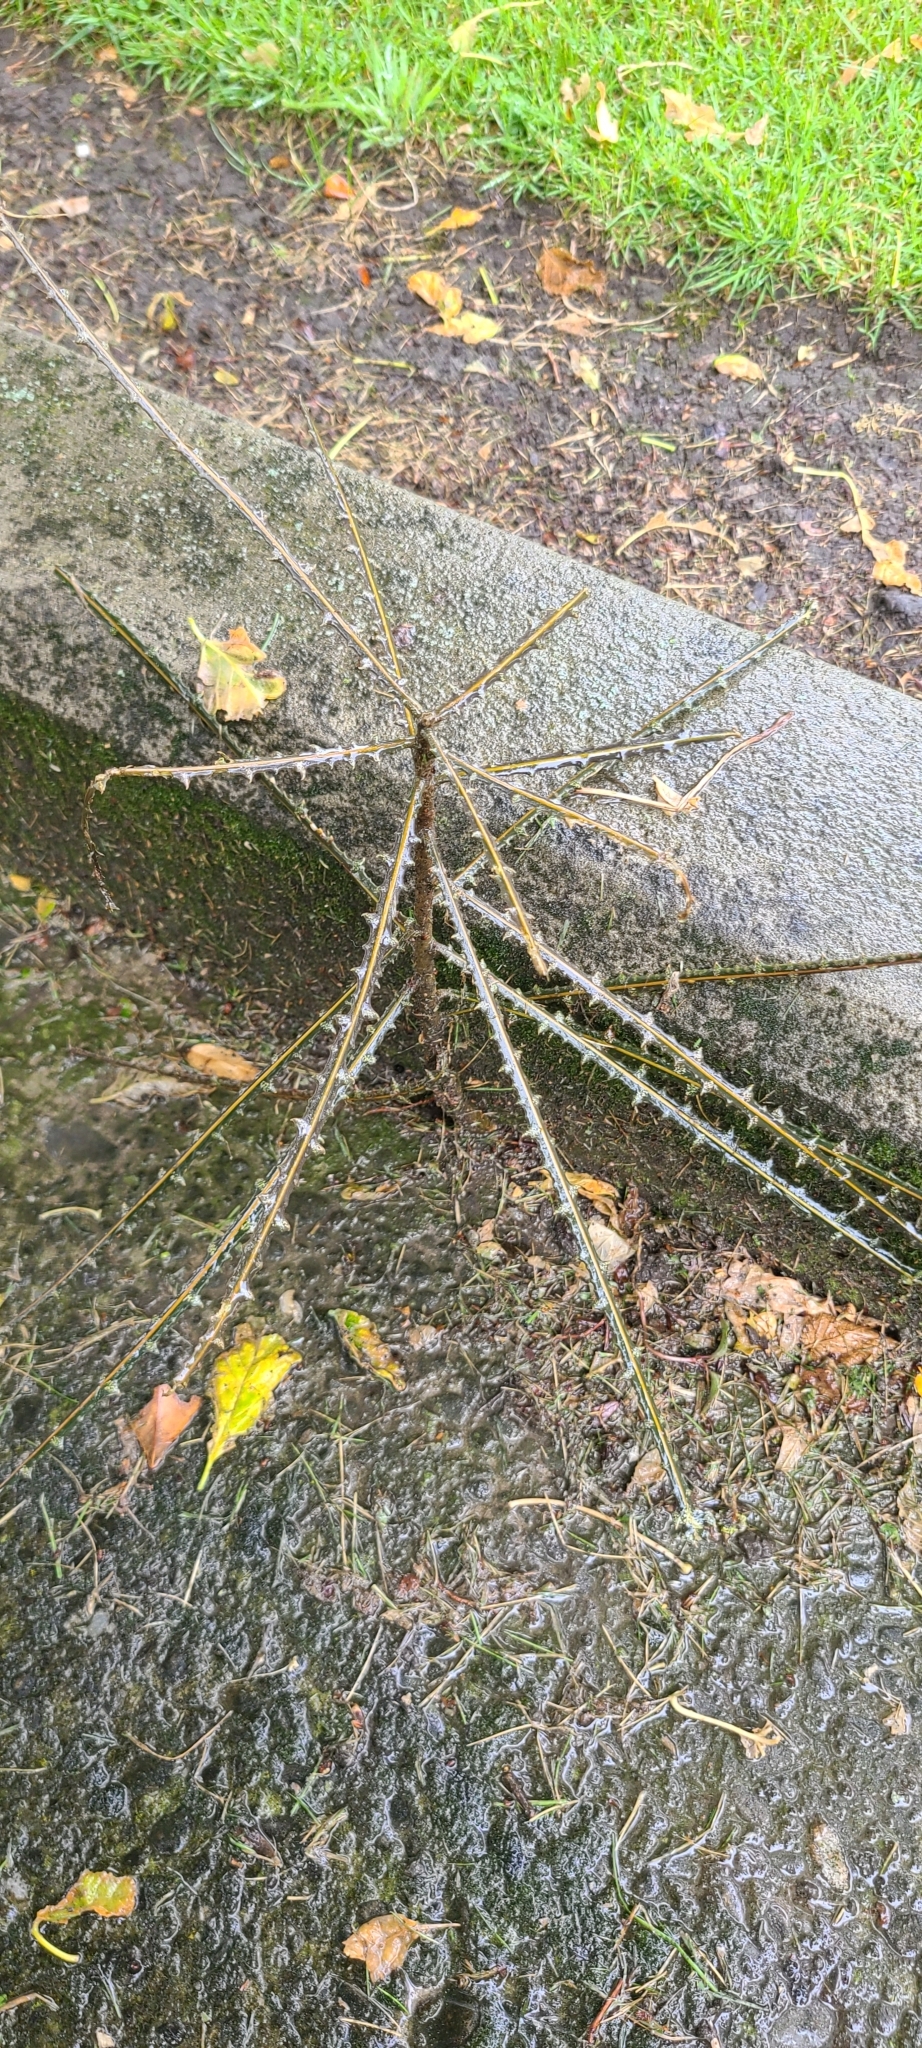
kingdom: Plantae
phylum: Tracheophyta
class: Magnoliopsida
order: Apiales
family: Araliaceae
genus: Pseudopanax
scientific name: Pseudopanax ferox
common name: Fierce lancewood
